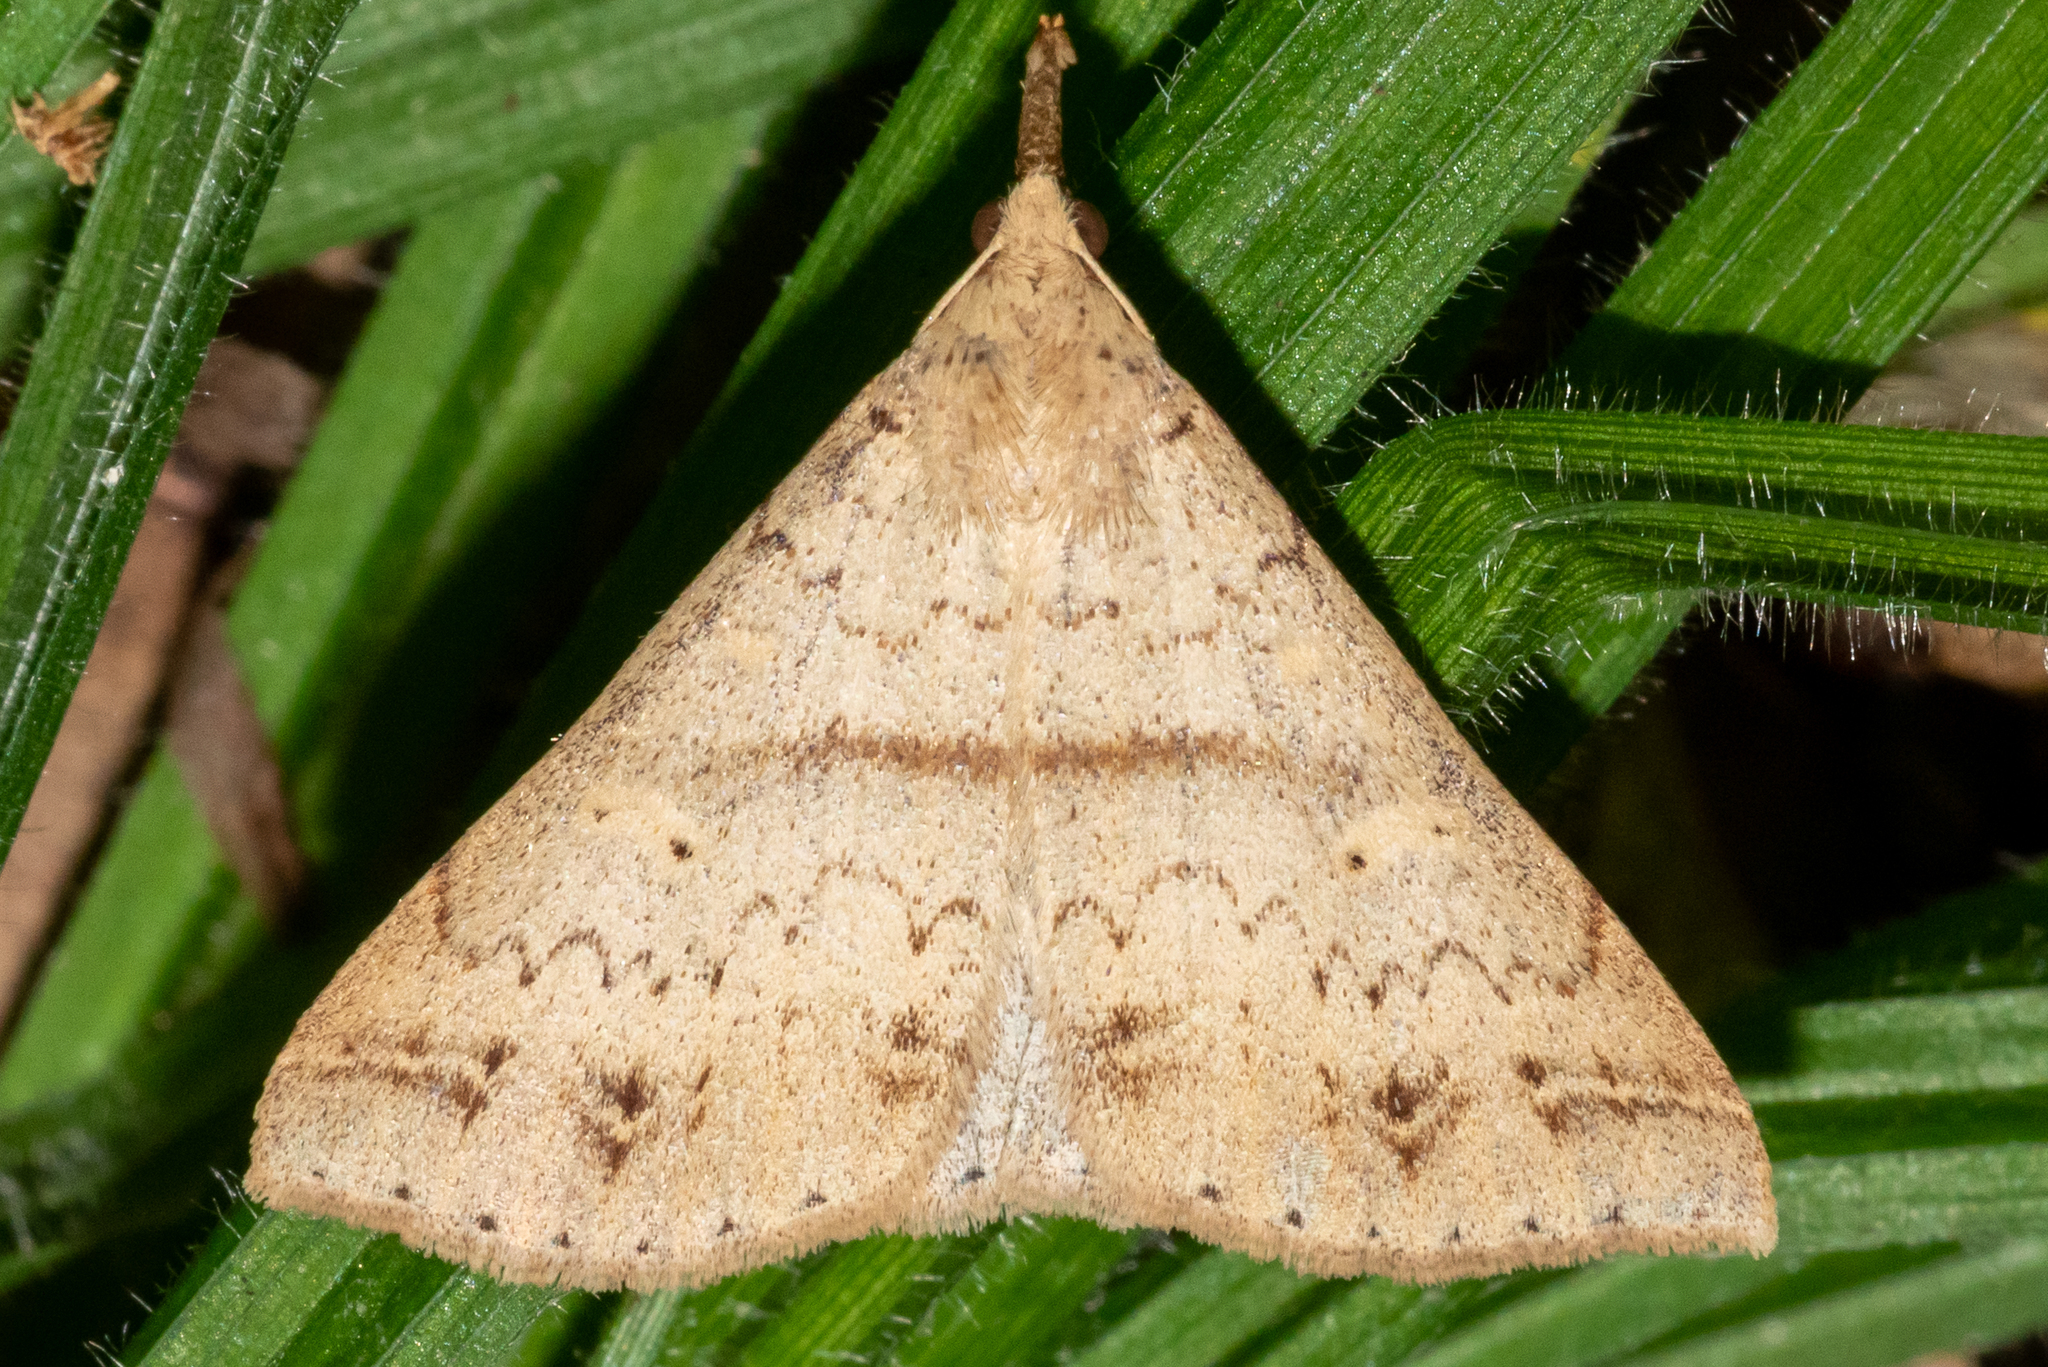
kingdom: Animalia
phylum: Arthropoda
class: Insecta
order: Lepidoptera
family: Erebidae
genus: Renia
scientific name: Renia salusalis
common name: Dotted renia moth
